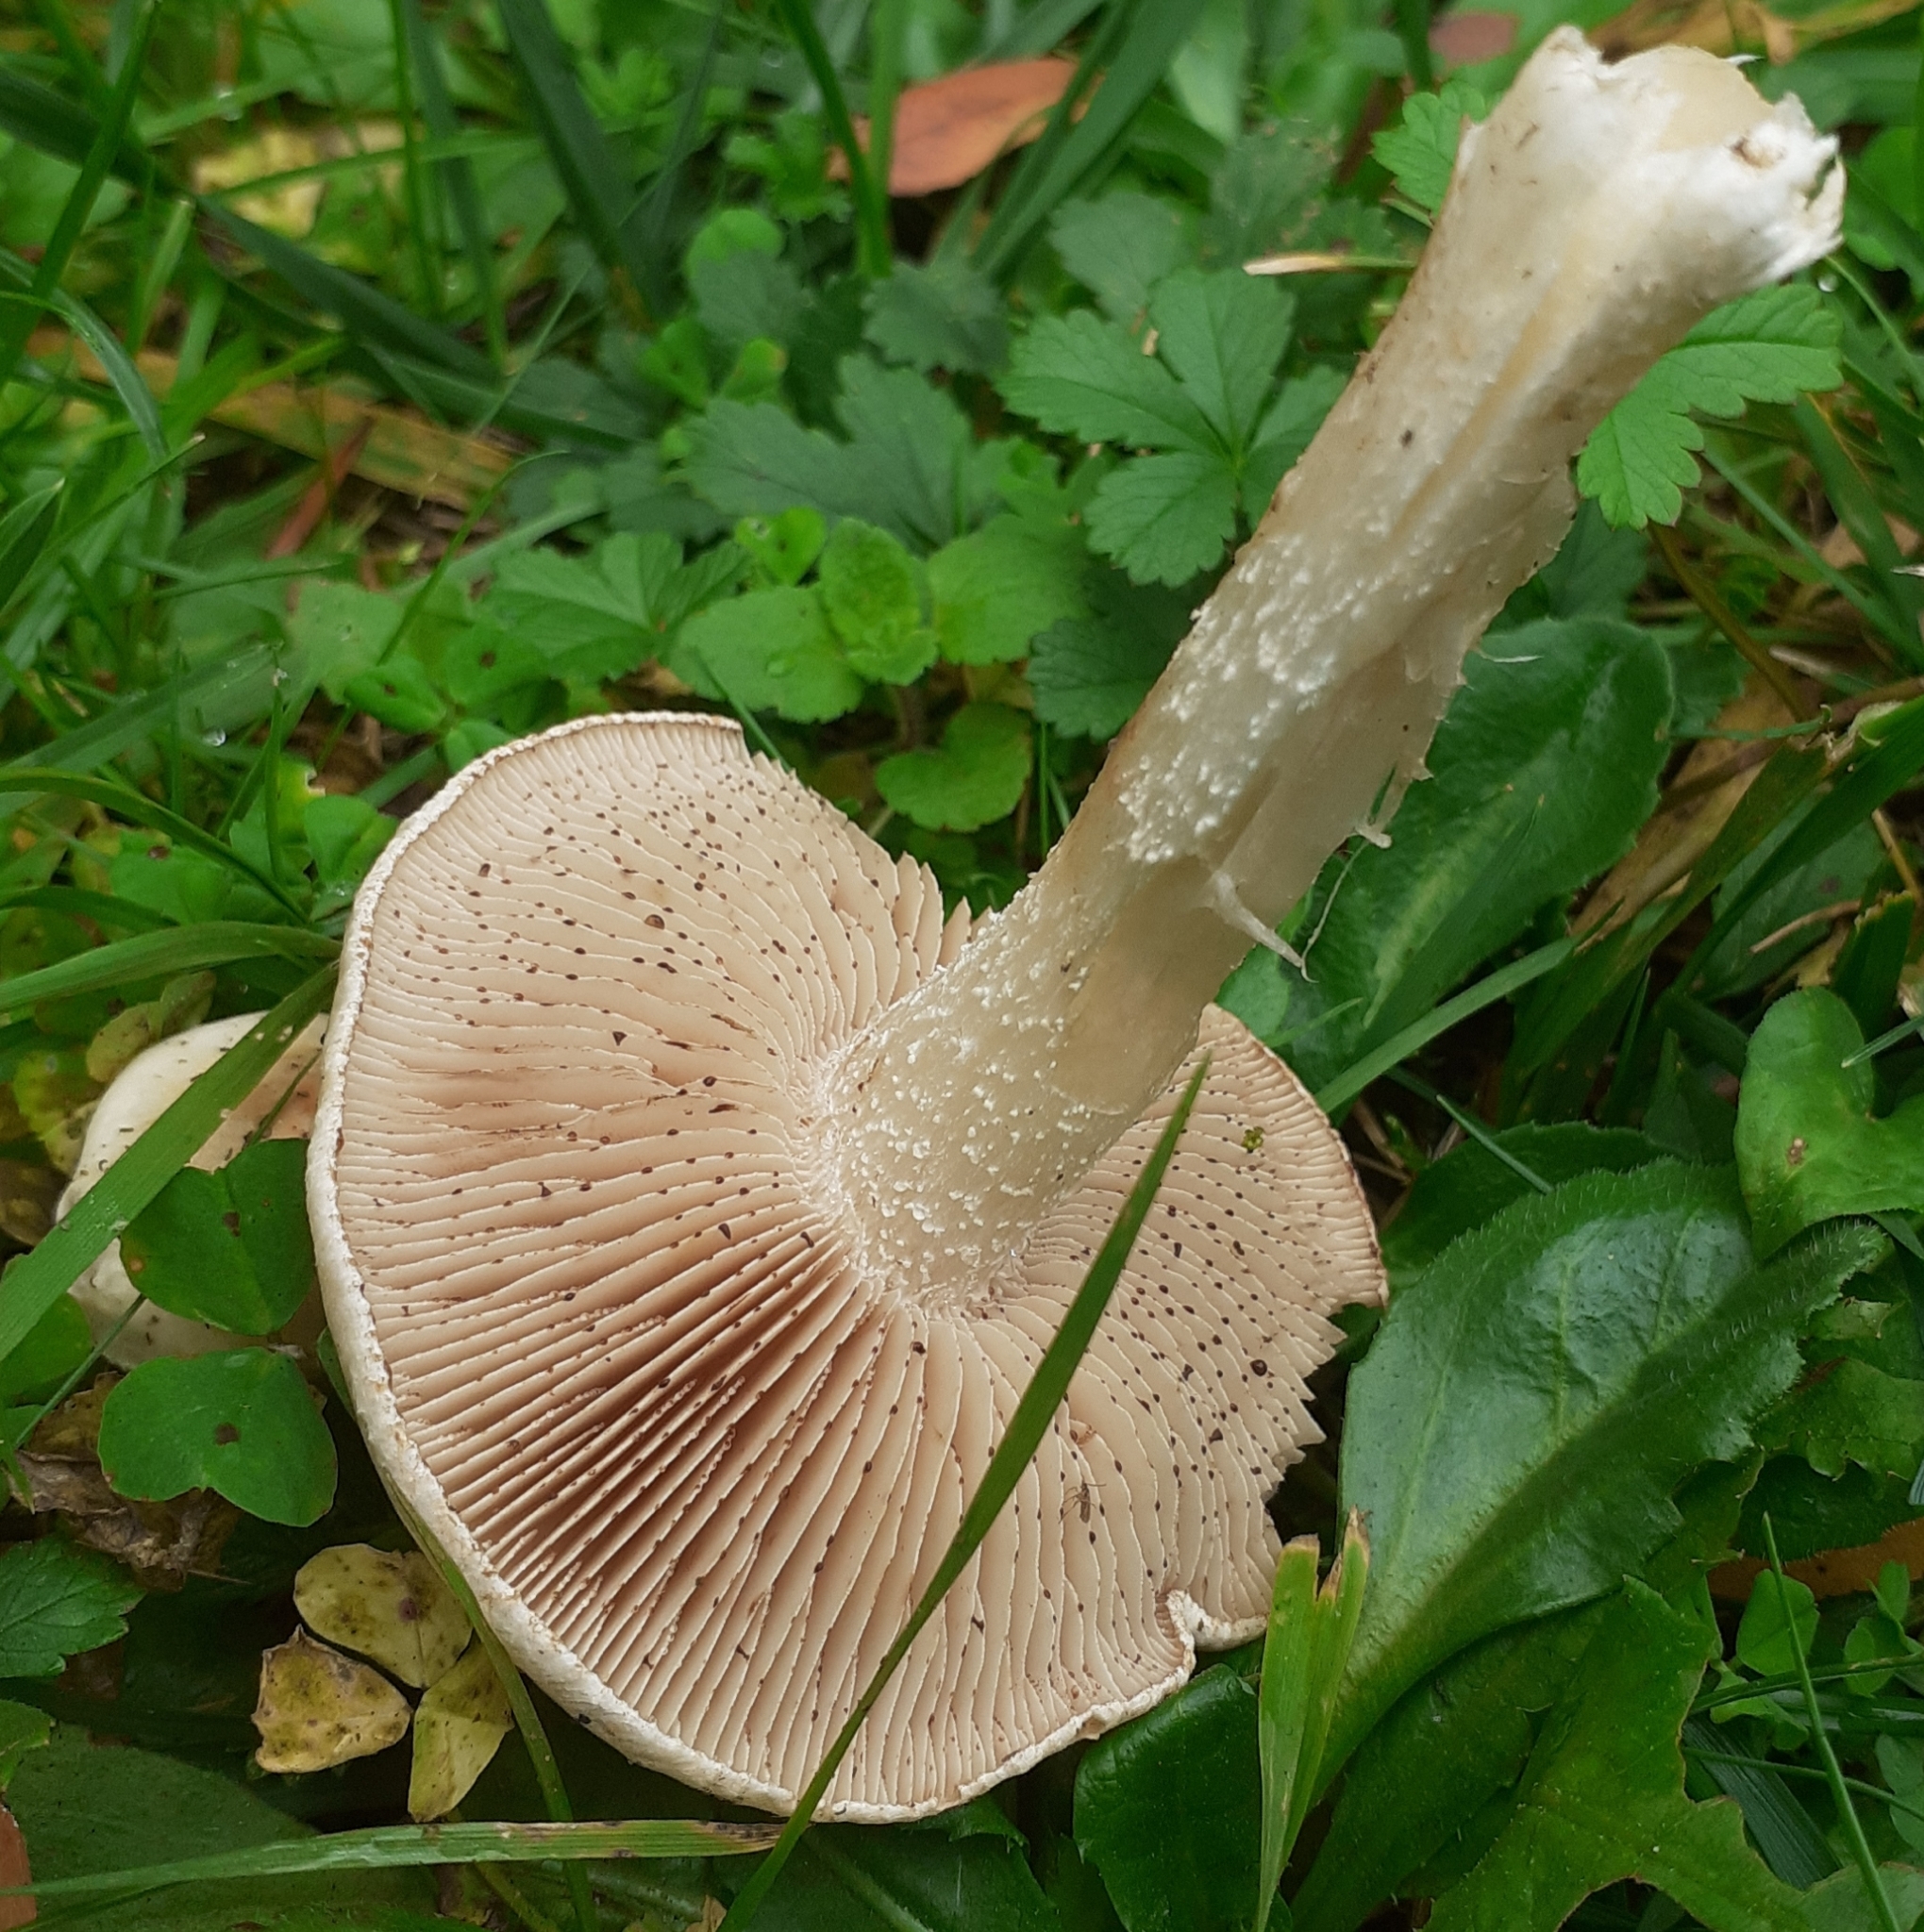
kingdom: Fungi
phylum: Basidiomycota
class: Agaricomycetes
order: Agaricales
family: Hymenogastraceae
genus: Hebeloma
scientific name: Hebeloma
